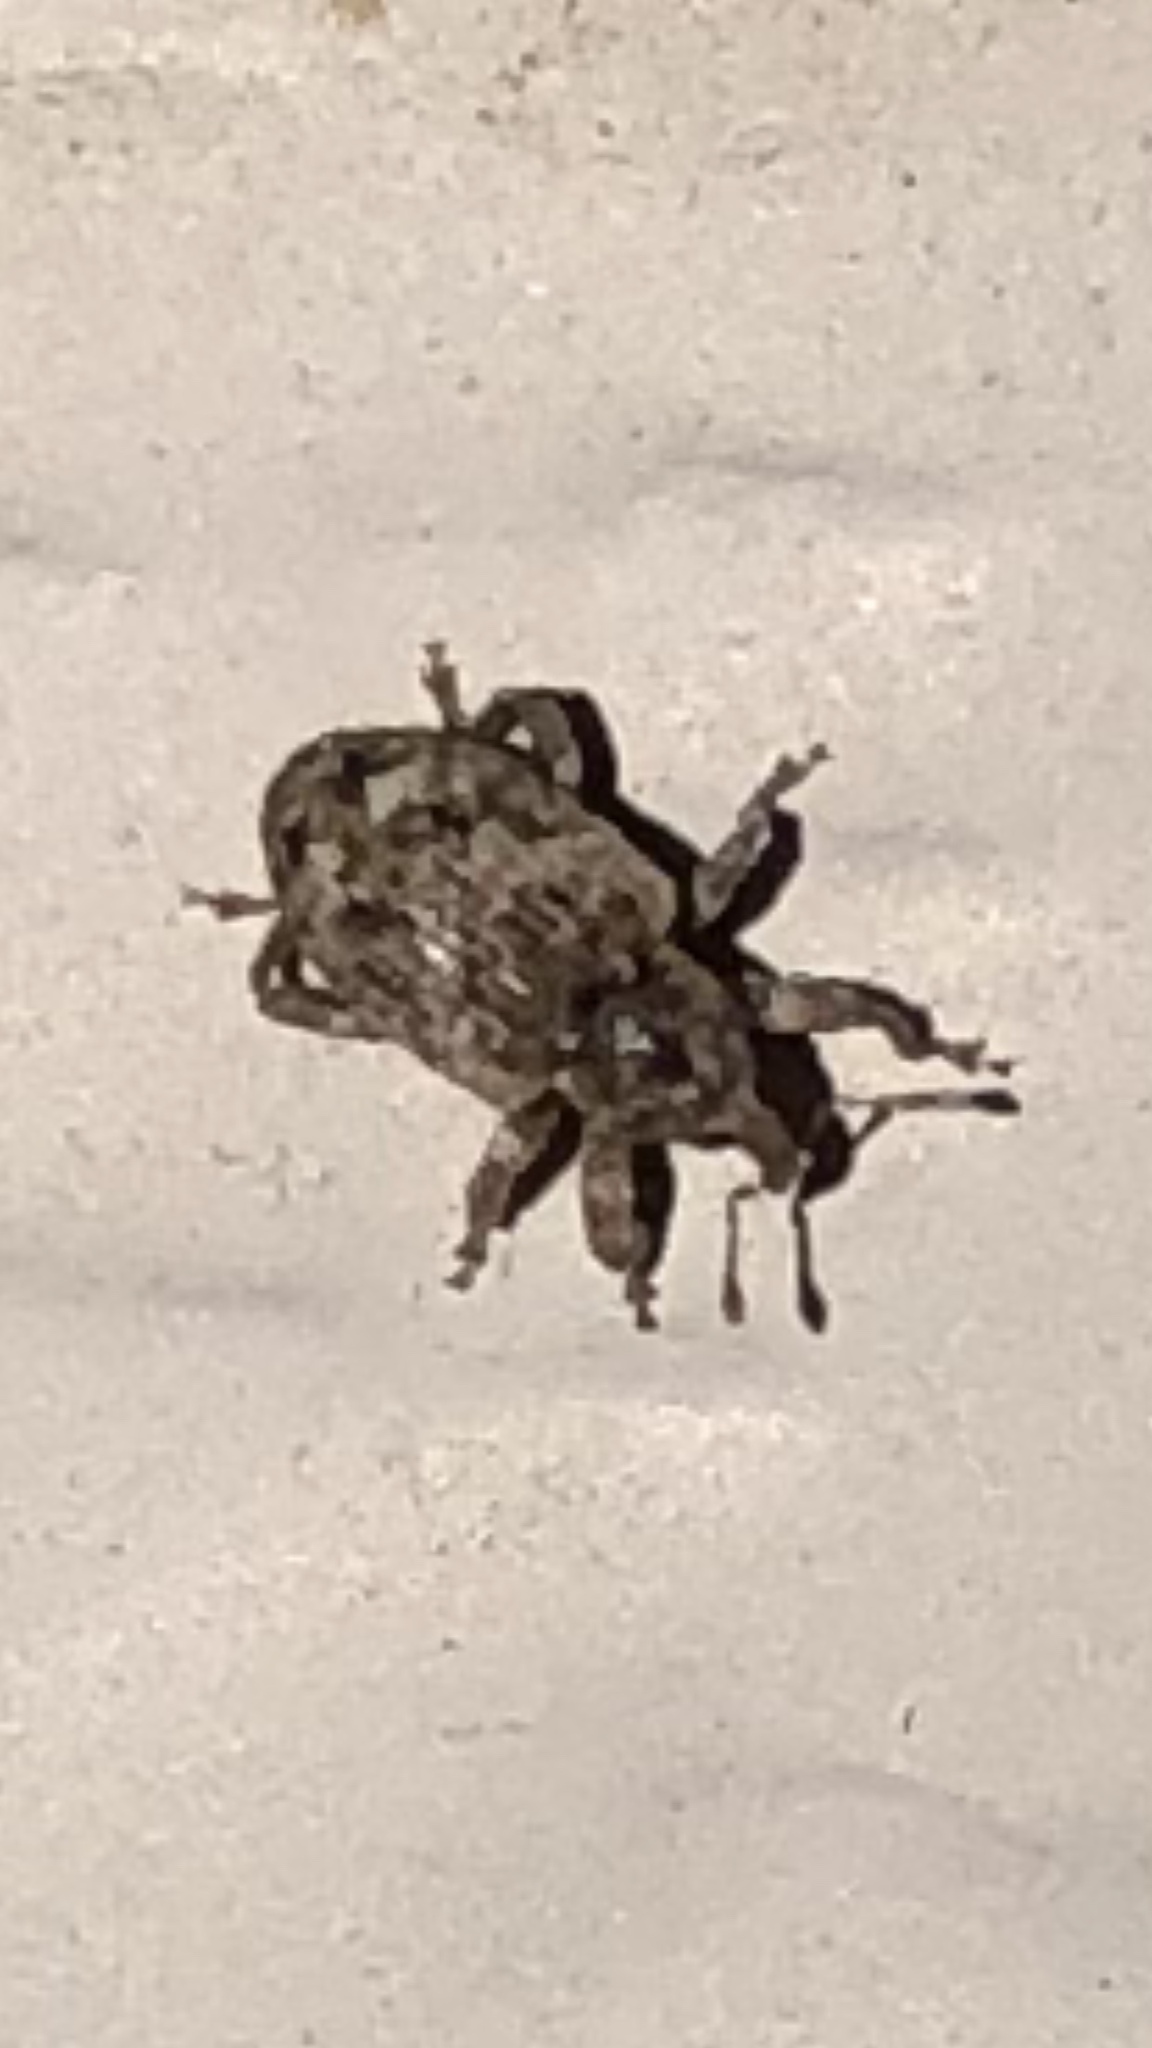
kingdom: Animalia
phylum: Arthropoda
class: Insecta
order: Coleoptera
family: Curculionidae
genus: Conotrachelus
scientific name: Conotrachelus recessus
